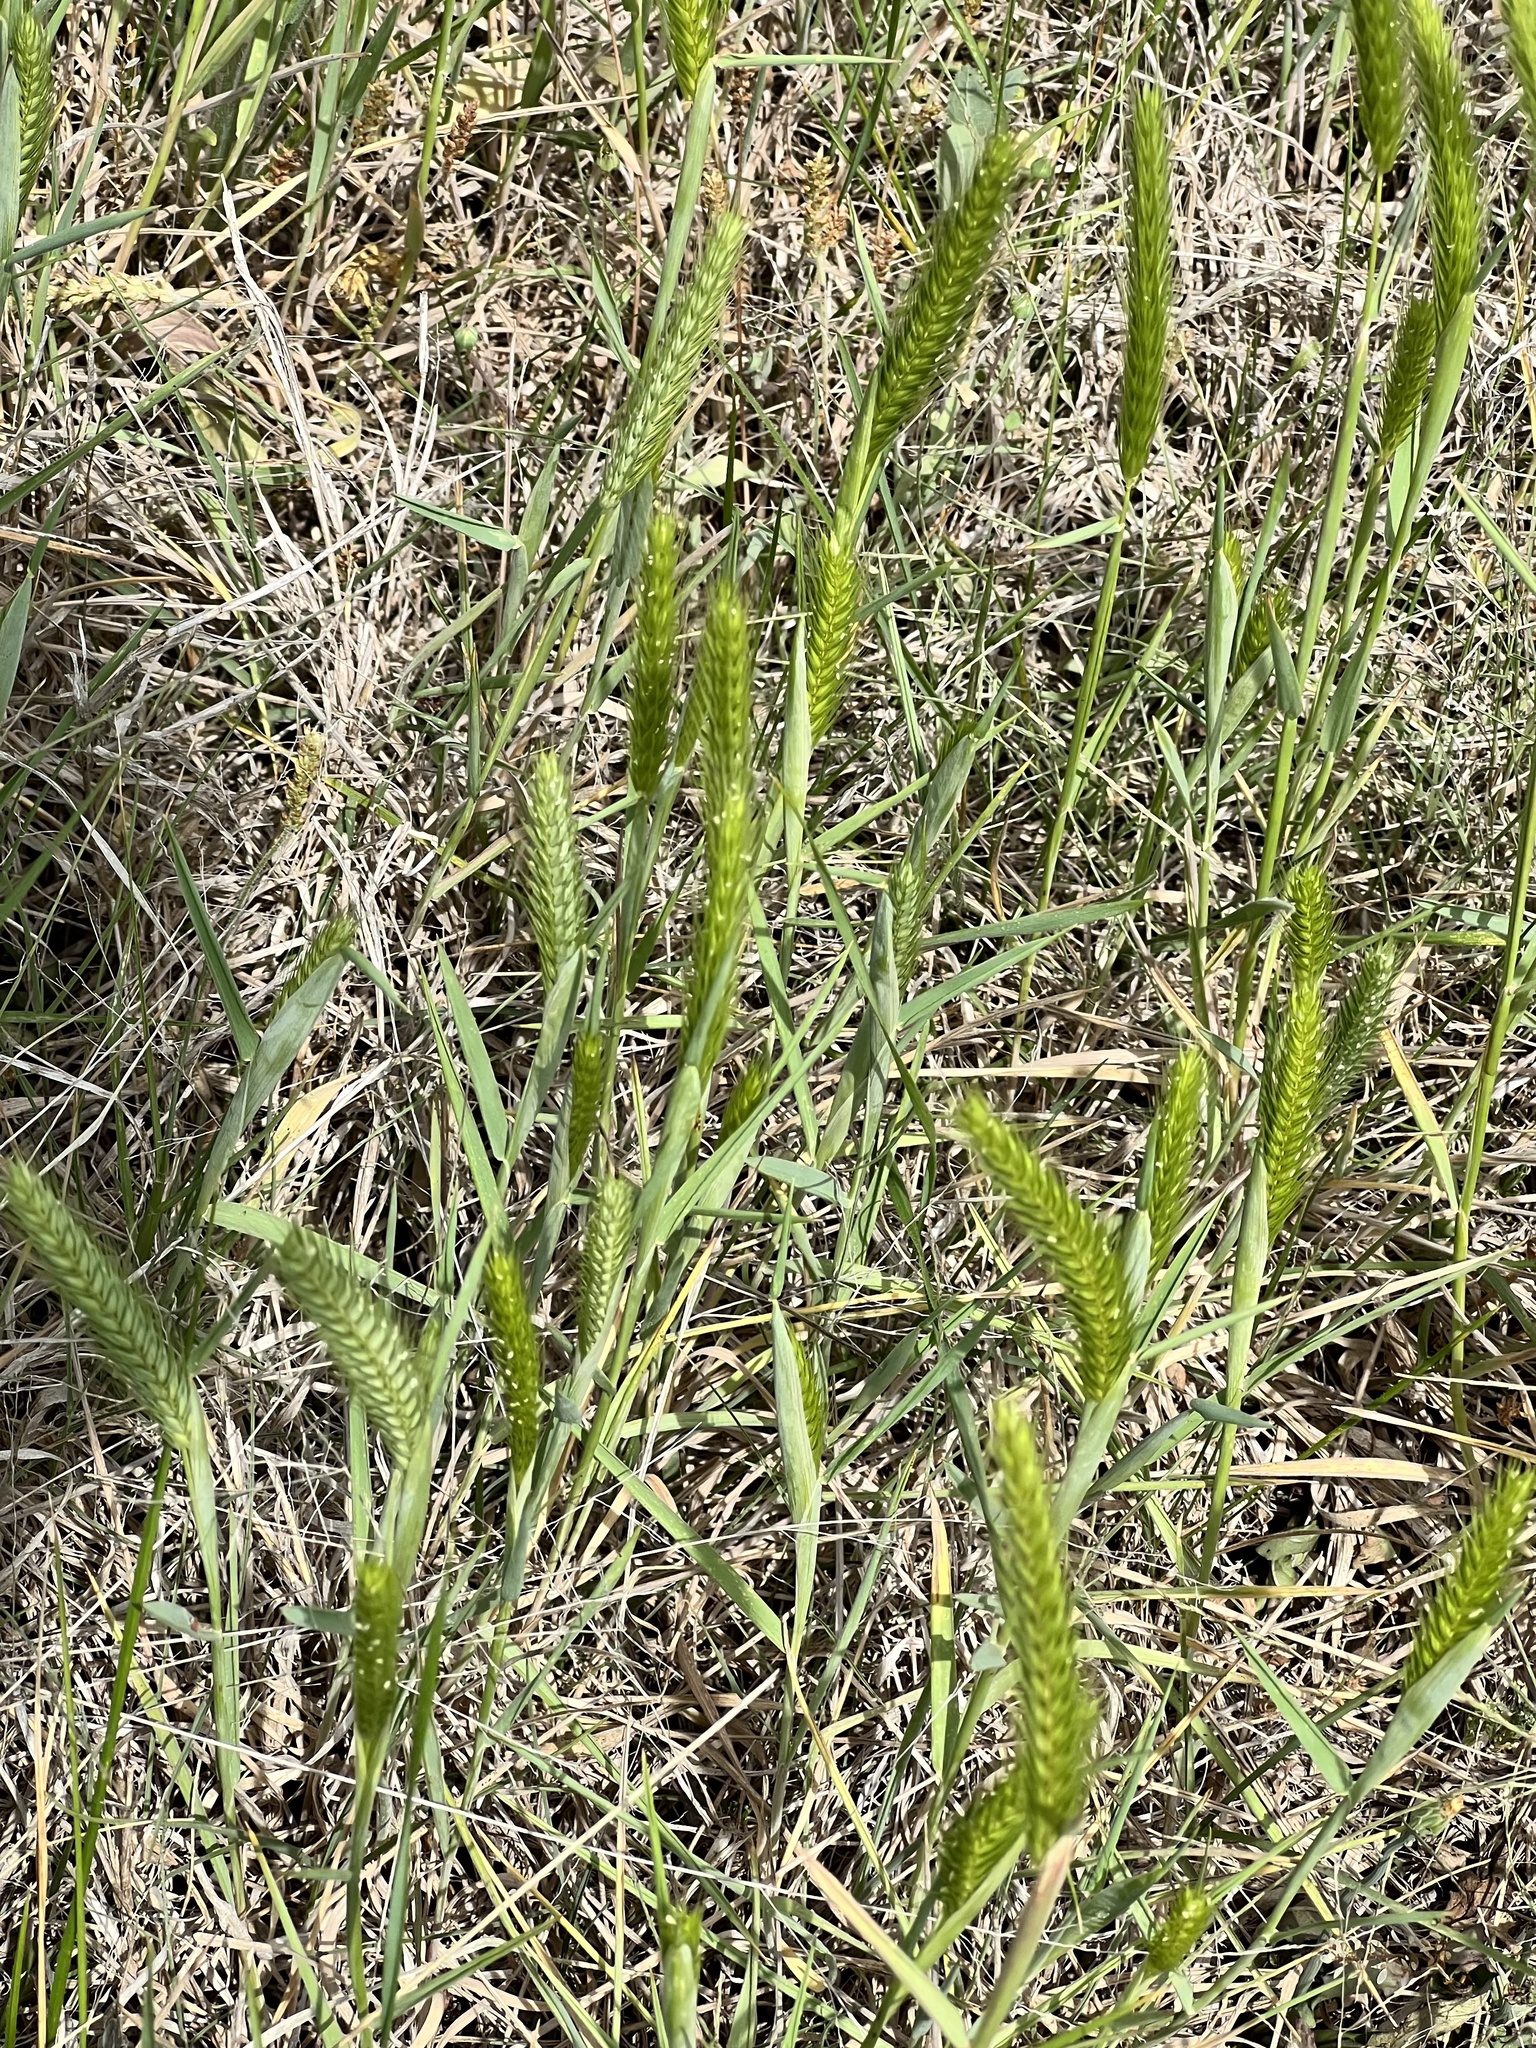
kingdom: Plantae
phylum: Tracheophyta
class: Liliopsida
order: Poales
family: Poaceae
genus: Hordeum
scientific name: Hordeum pusillum
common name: Little barley
